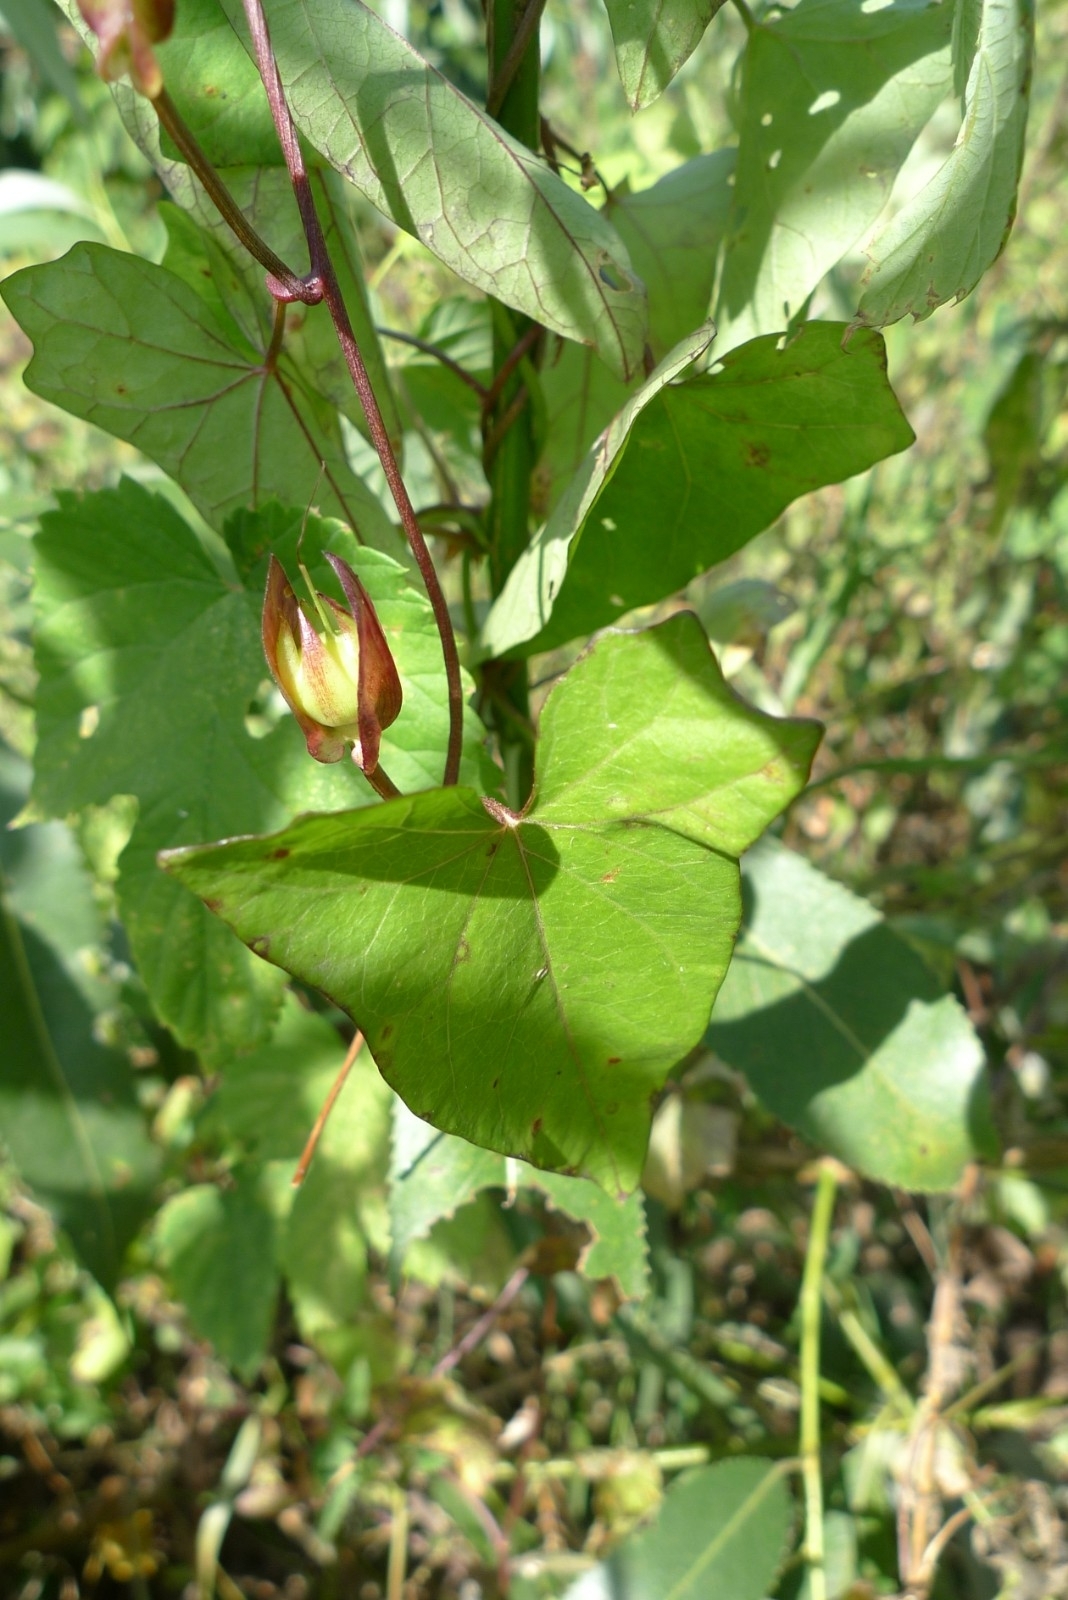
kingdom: Plantae
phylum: Tracheophyta
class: Magnoliopsida
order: Solanales
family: Convolvulaceae
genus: Calystegia
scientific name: Calystegia sepium
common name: Hedge bindweed
